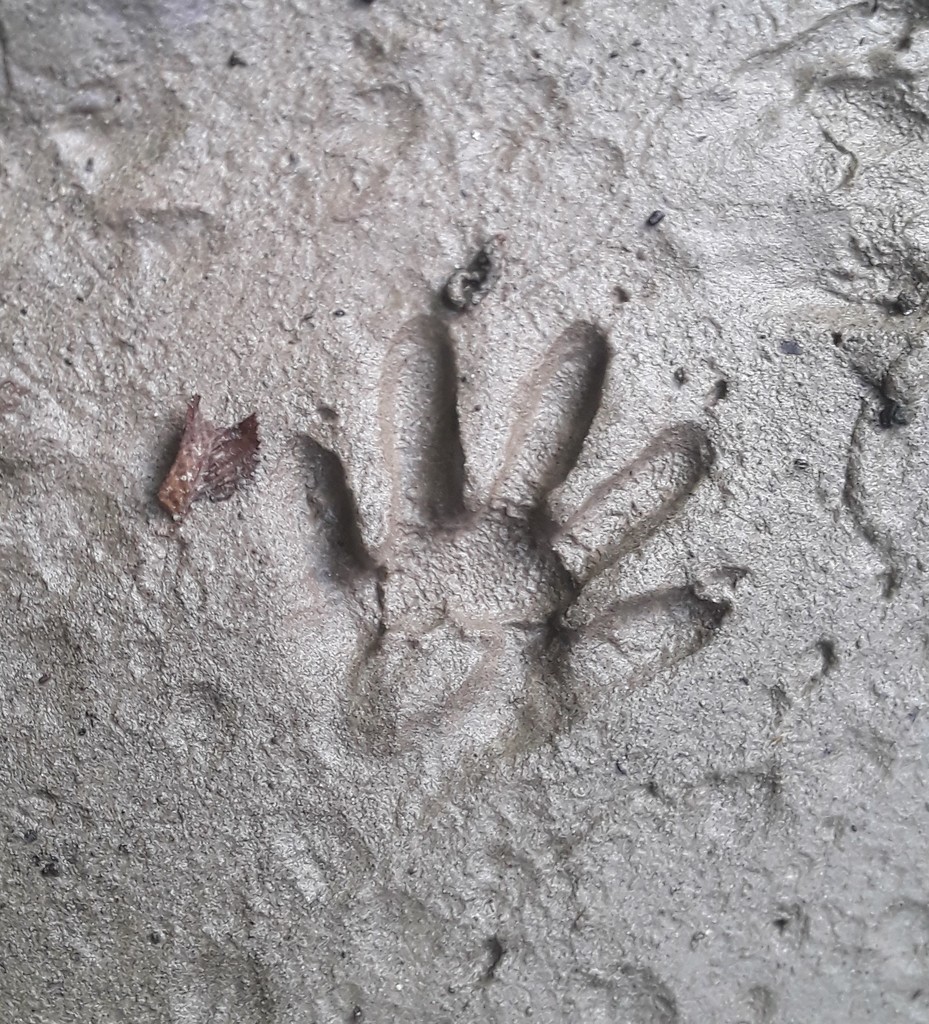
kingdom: Animalia
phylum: Chordata
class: Mammalia
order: Carnivora
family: Procyonidae
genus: Procyon
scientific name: Procyon lotor
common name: Raccoon
